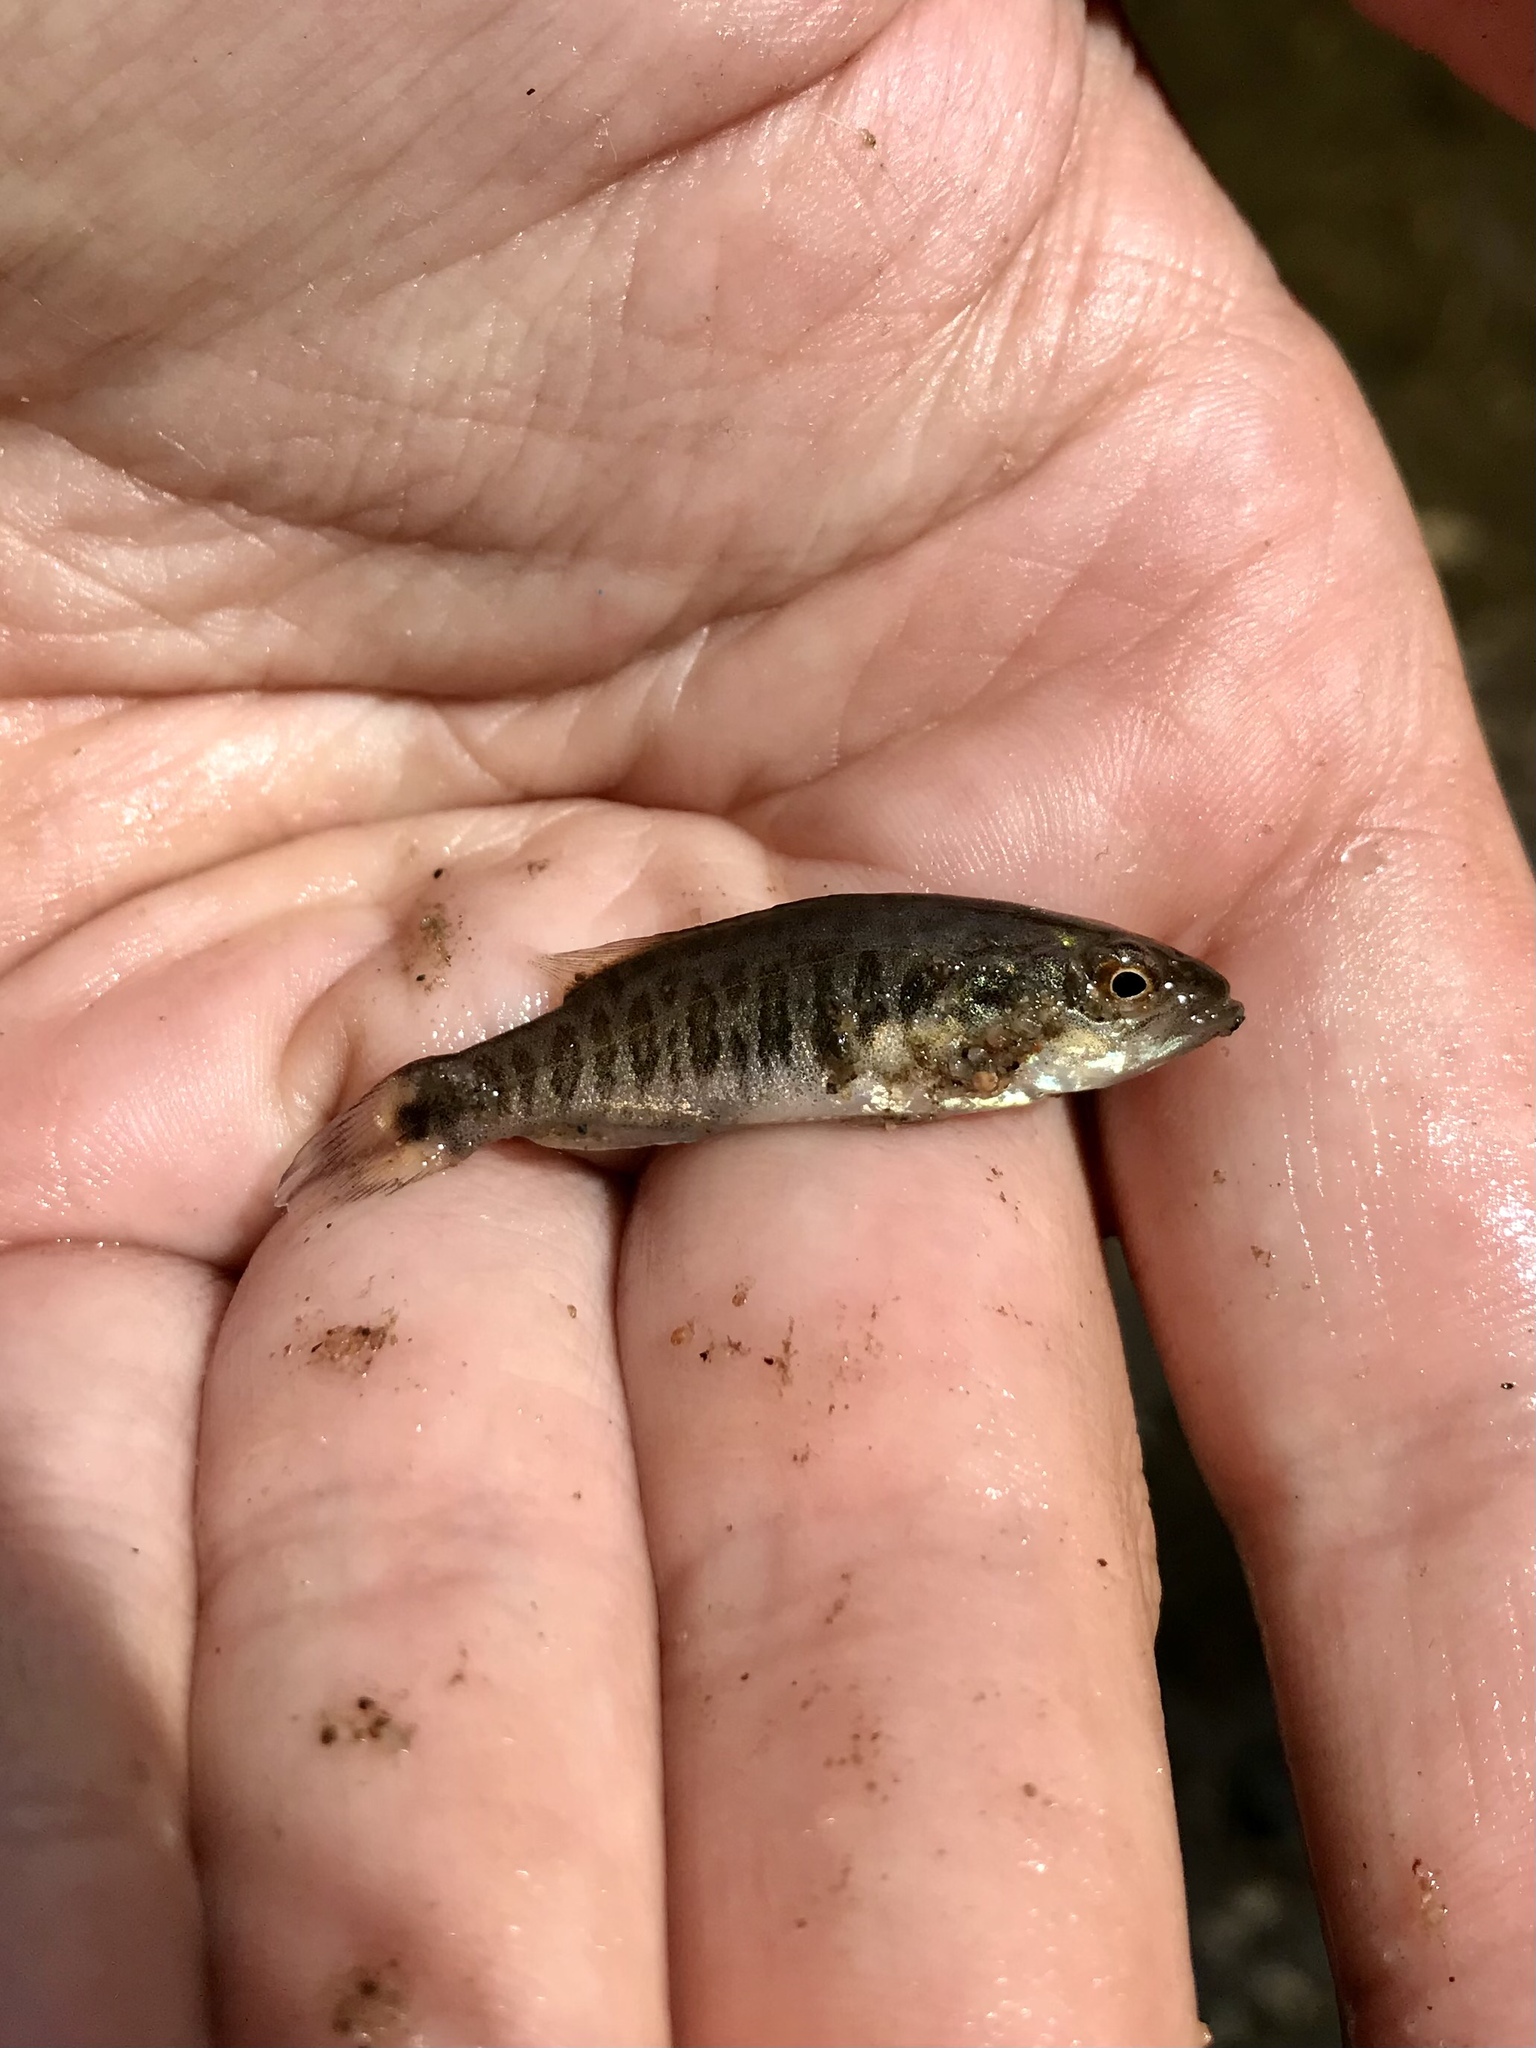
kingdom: Animalia
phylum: Chordata
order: Perciformes
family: Centrarchidae
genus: Micropterus
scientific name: Micropterus dolomieu
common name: Smallmouth bass
